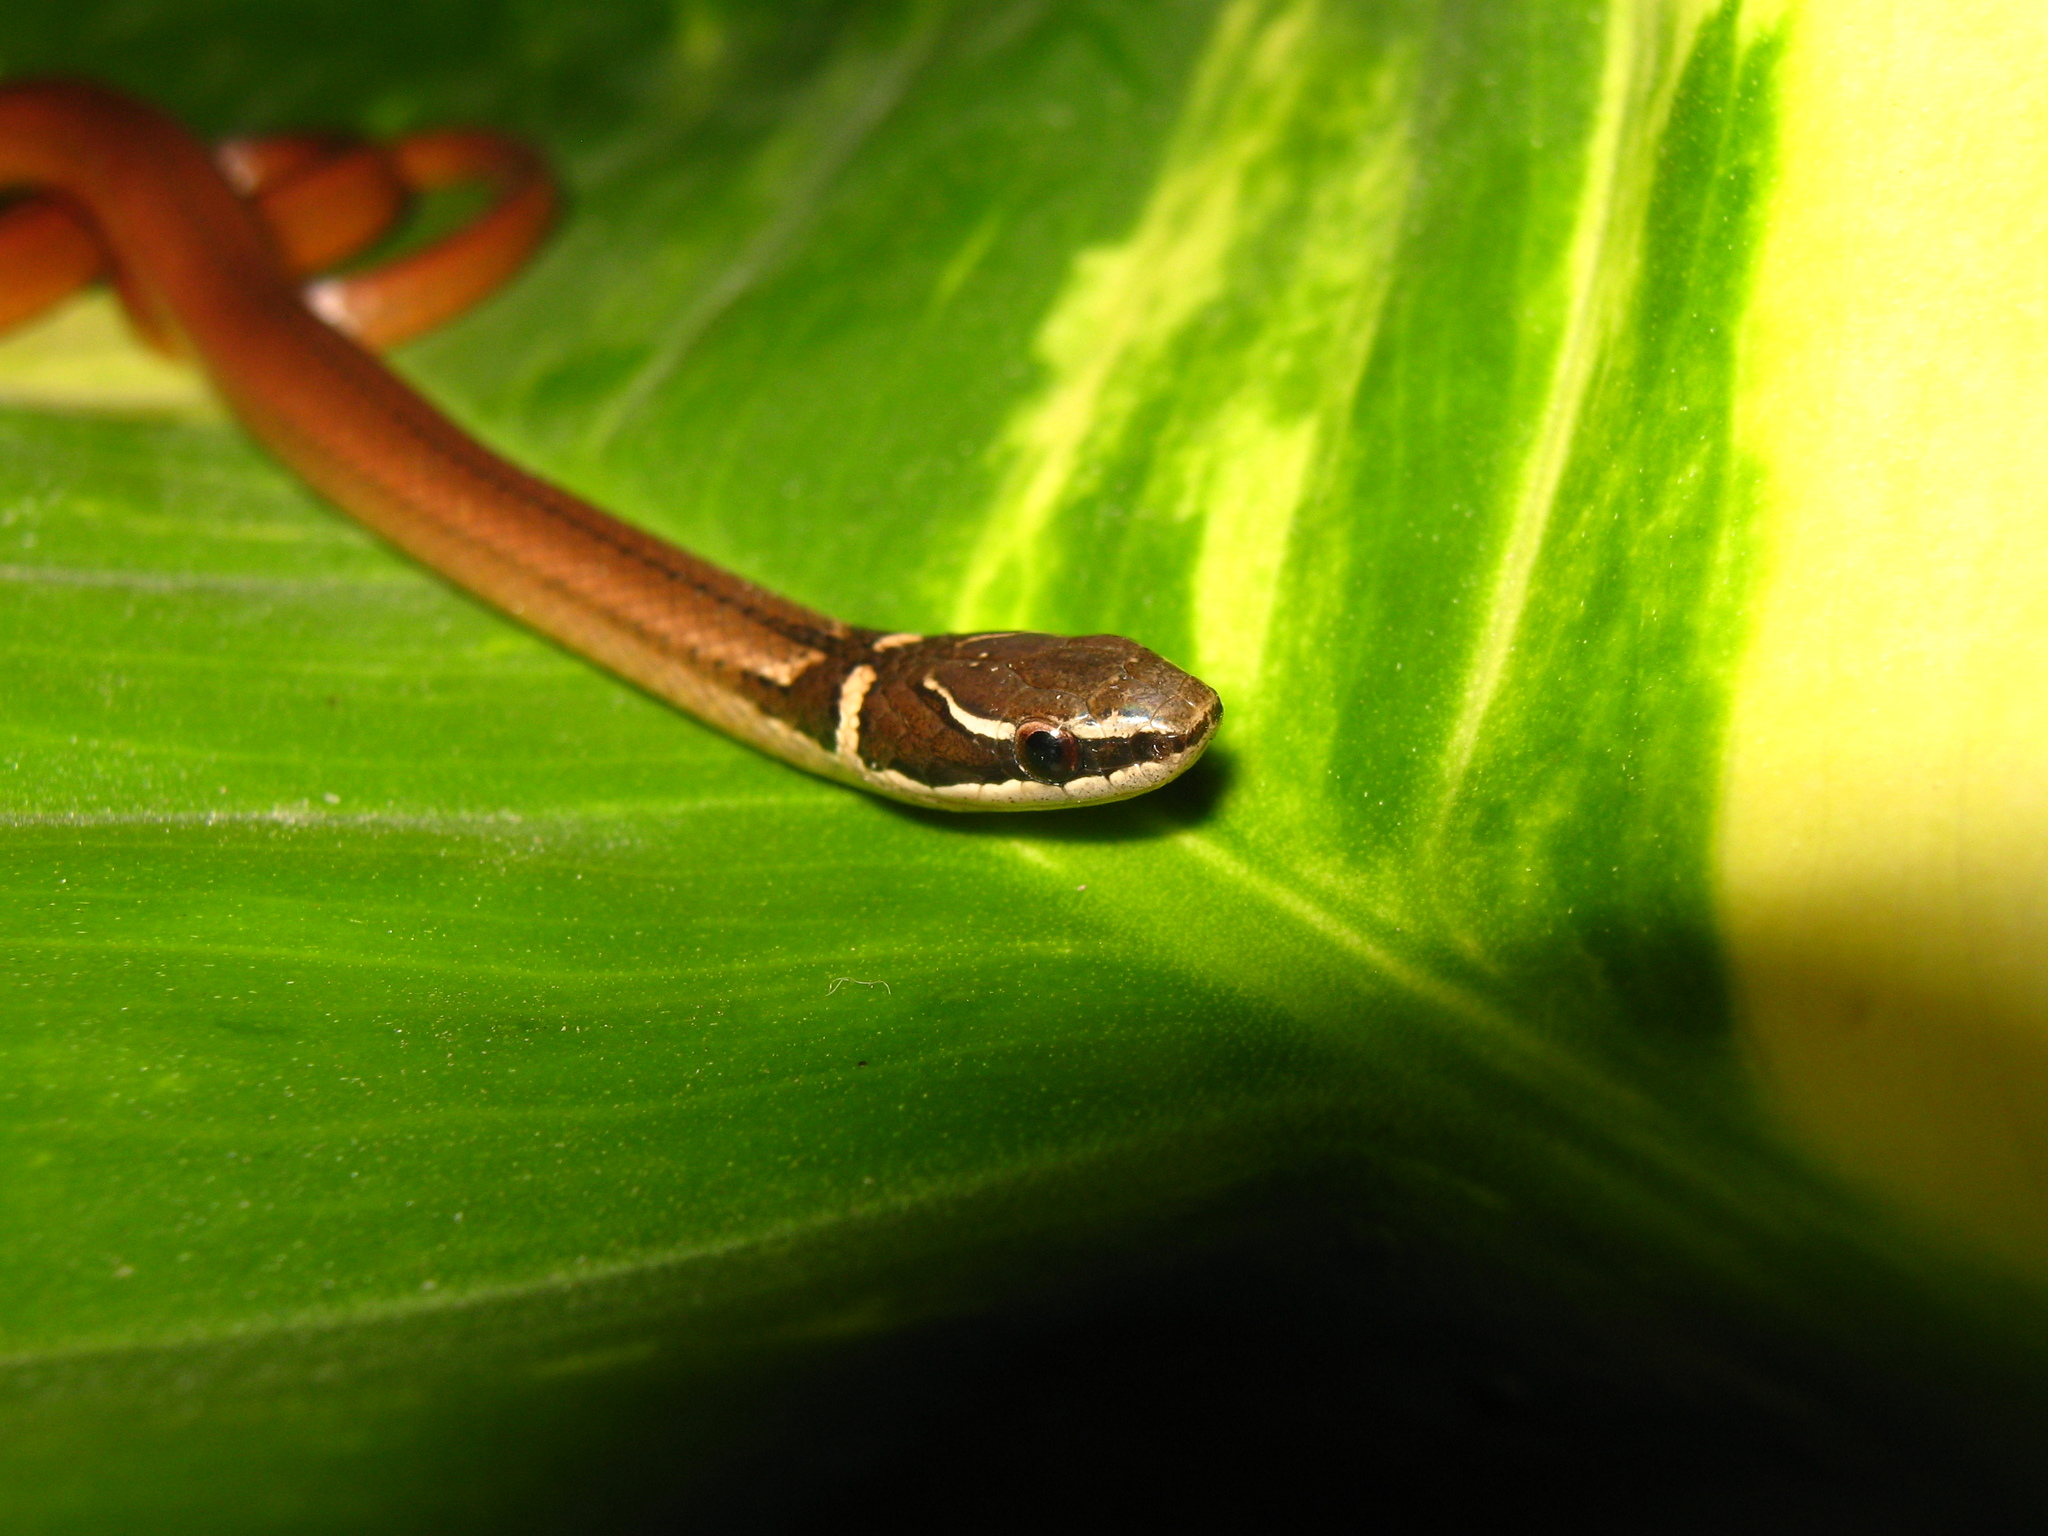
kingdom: Animalia
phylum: Chordata
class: Squamata
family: Colubridae
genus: Coniophanes
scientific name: Coniophanes meridanus
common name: Peninsula stripeless snake
